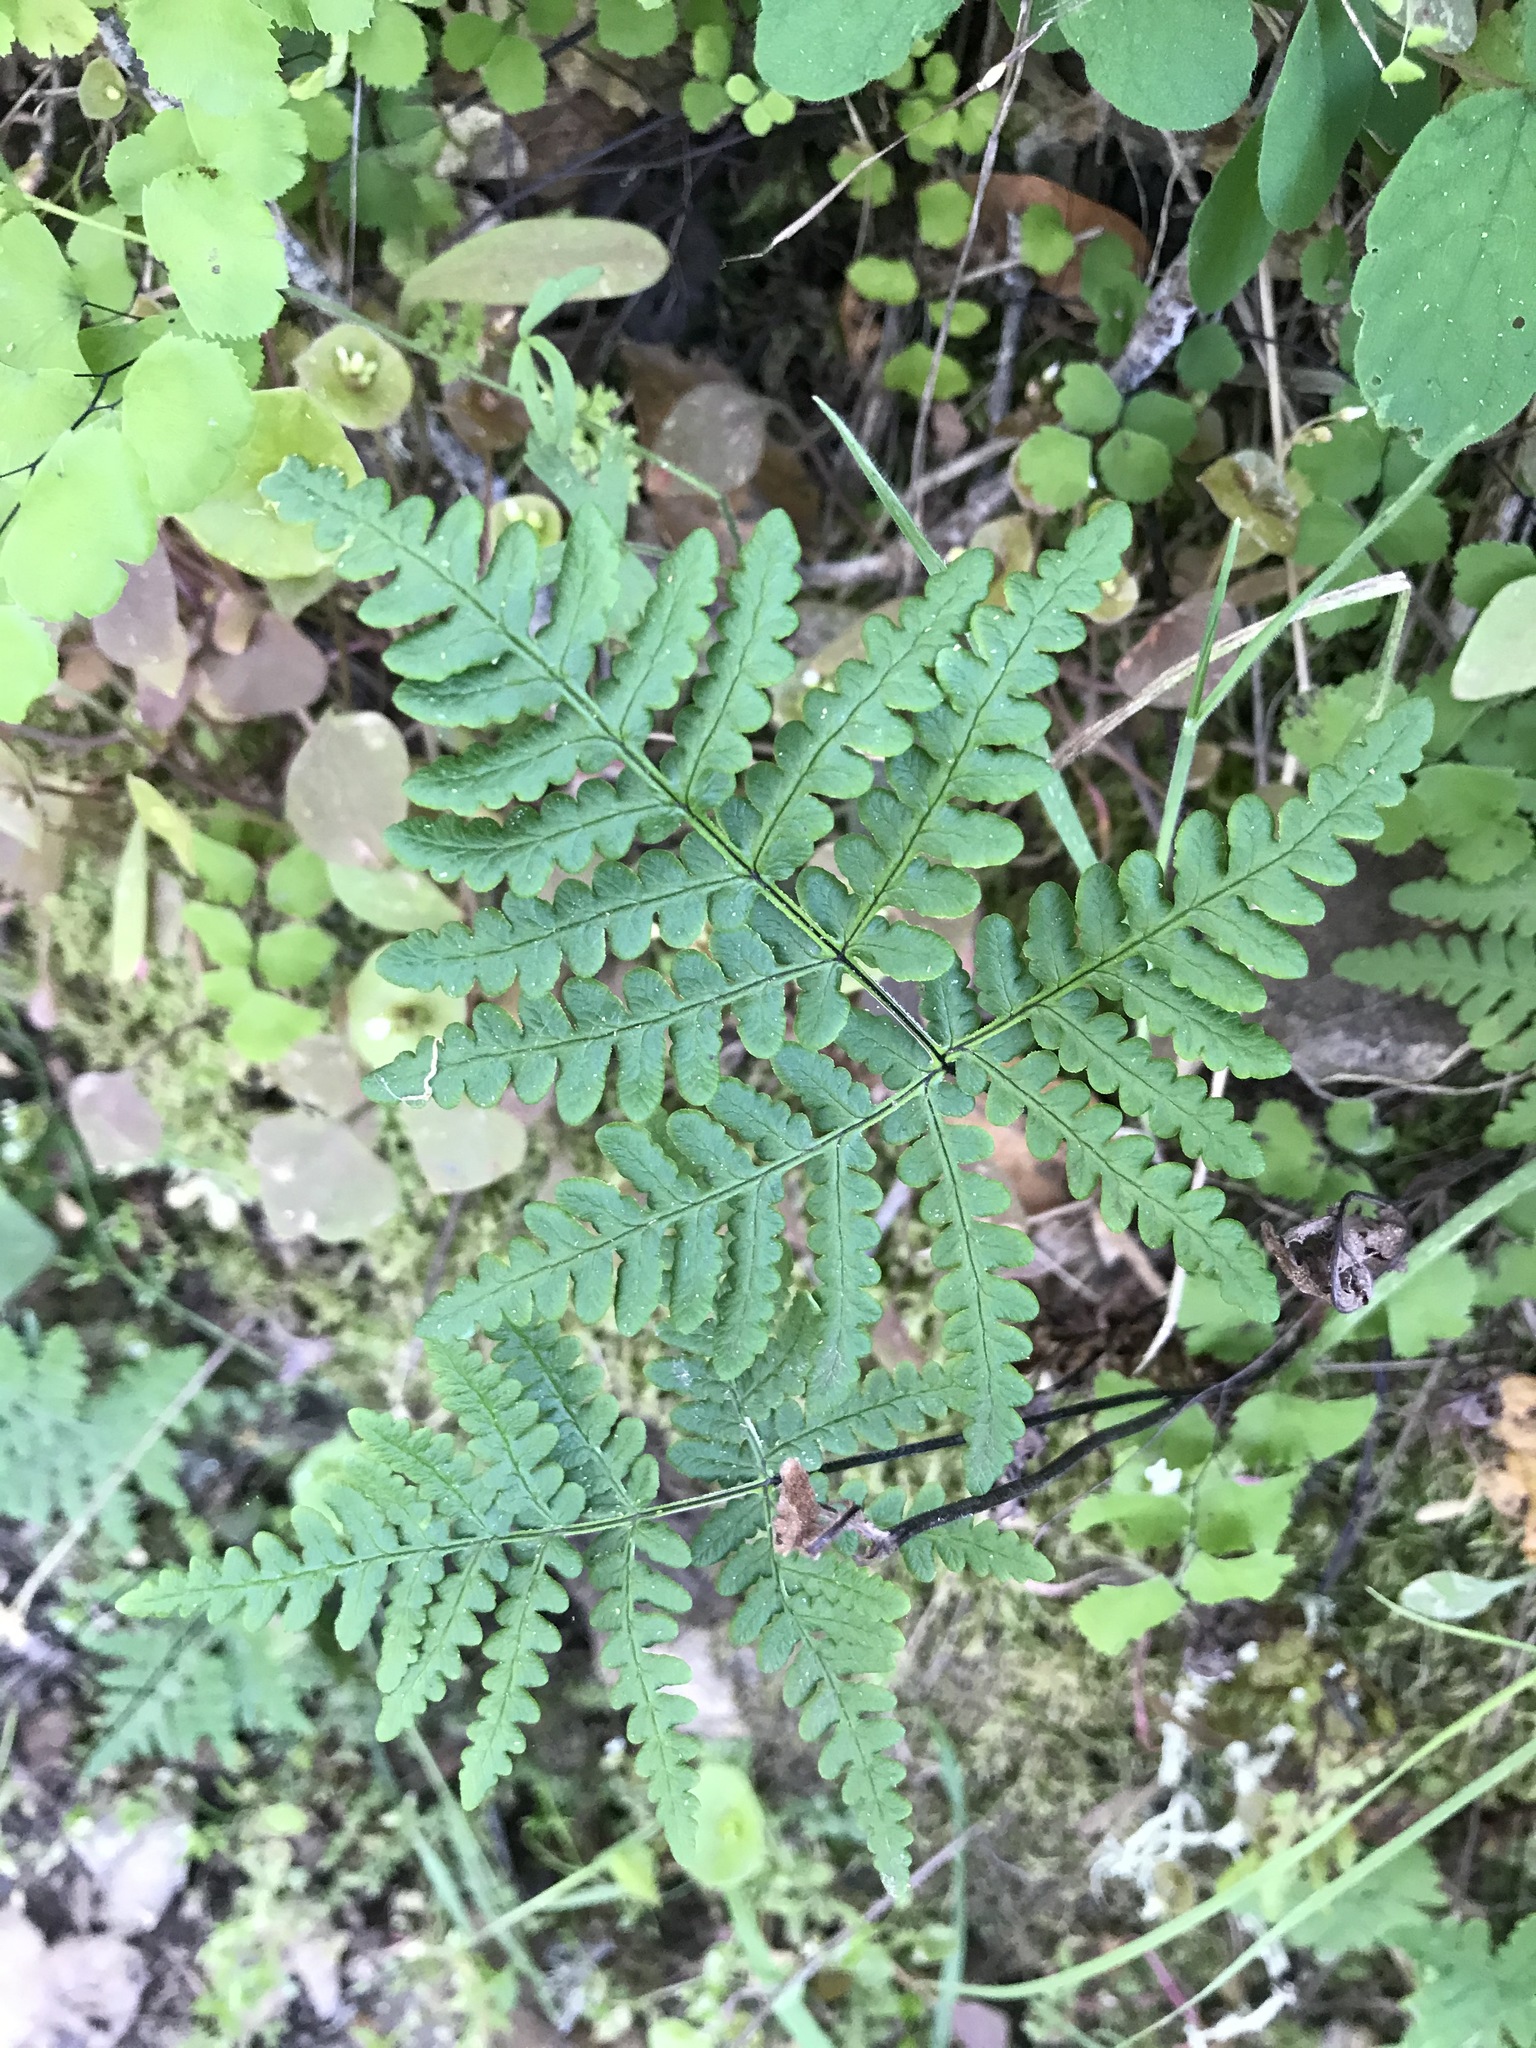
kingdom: Plantae
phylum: Tracheophyta
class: Polypodiopsida
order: Polypodiales
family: Pteridaceae
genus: Pentagramma
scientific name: Pentagramma triangularis
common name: Gold fern
